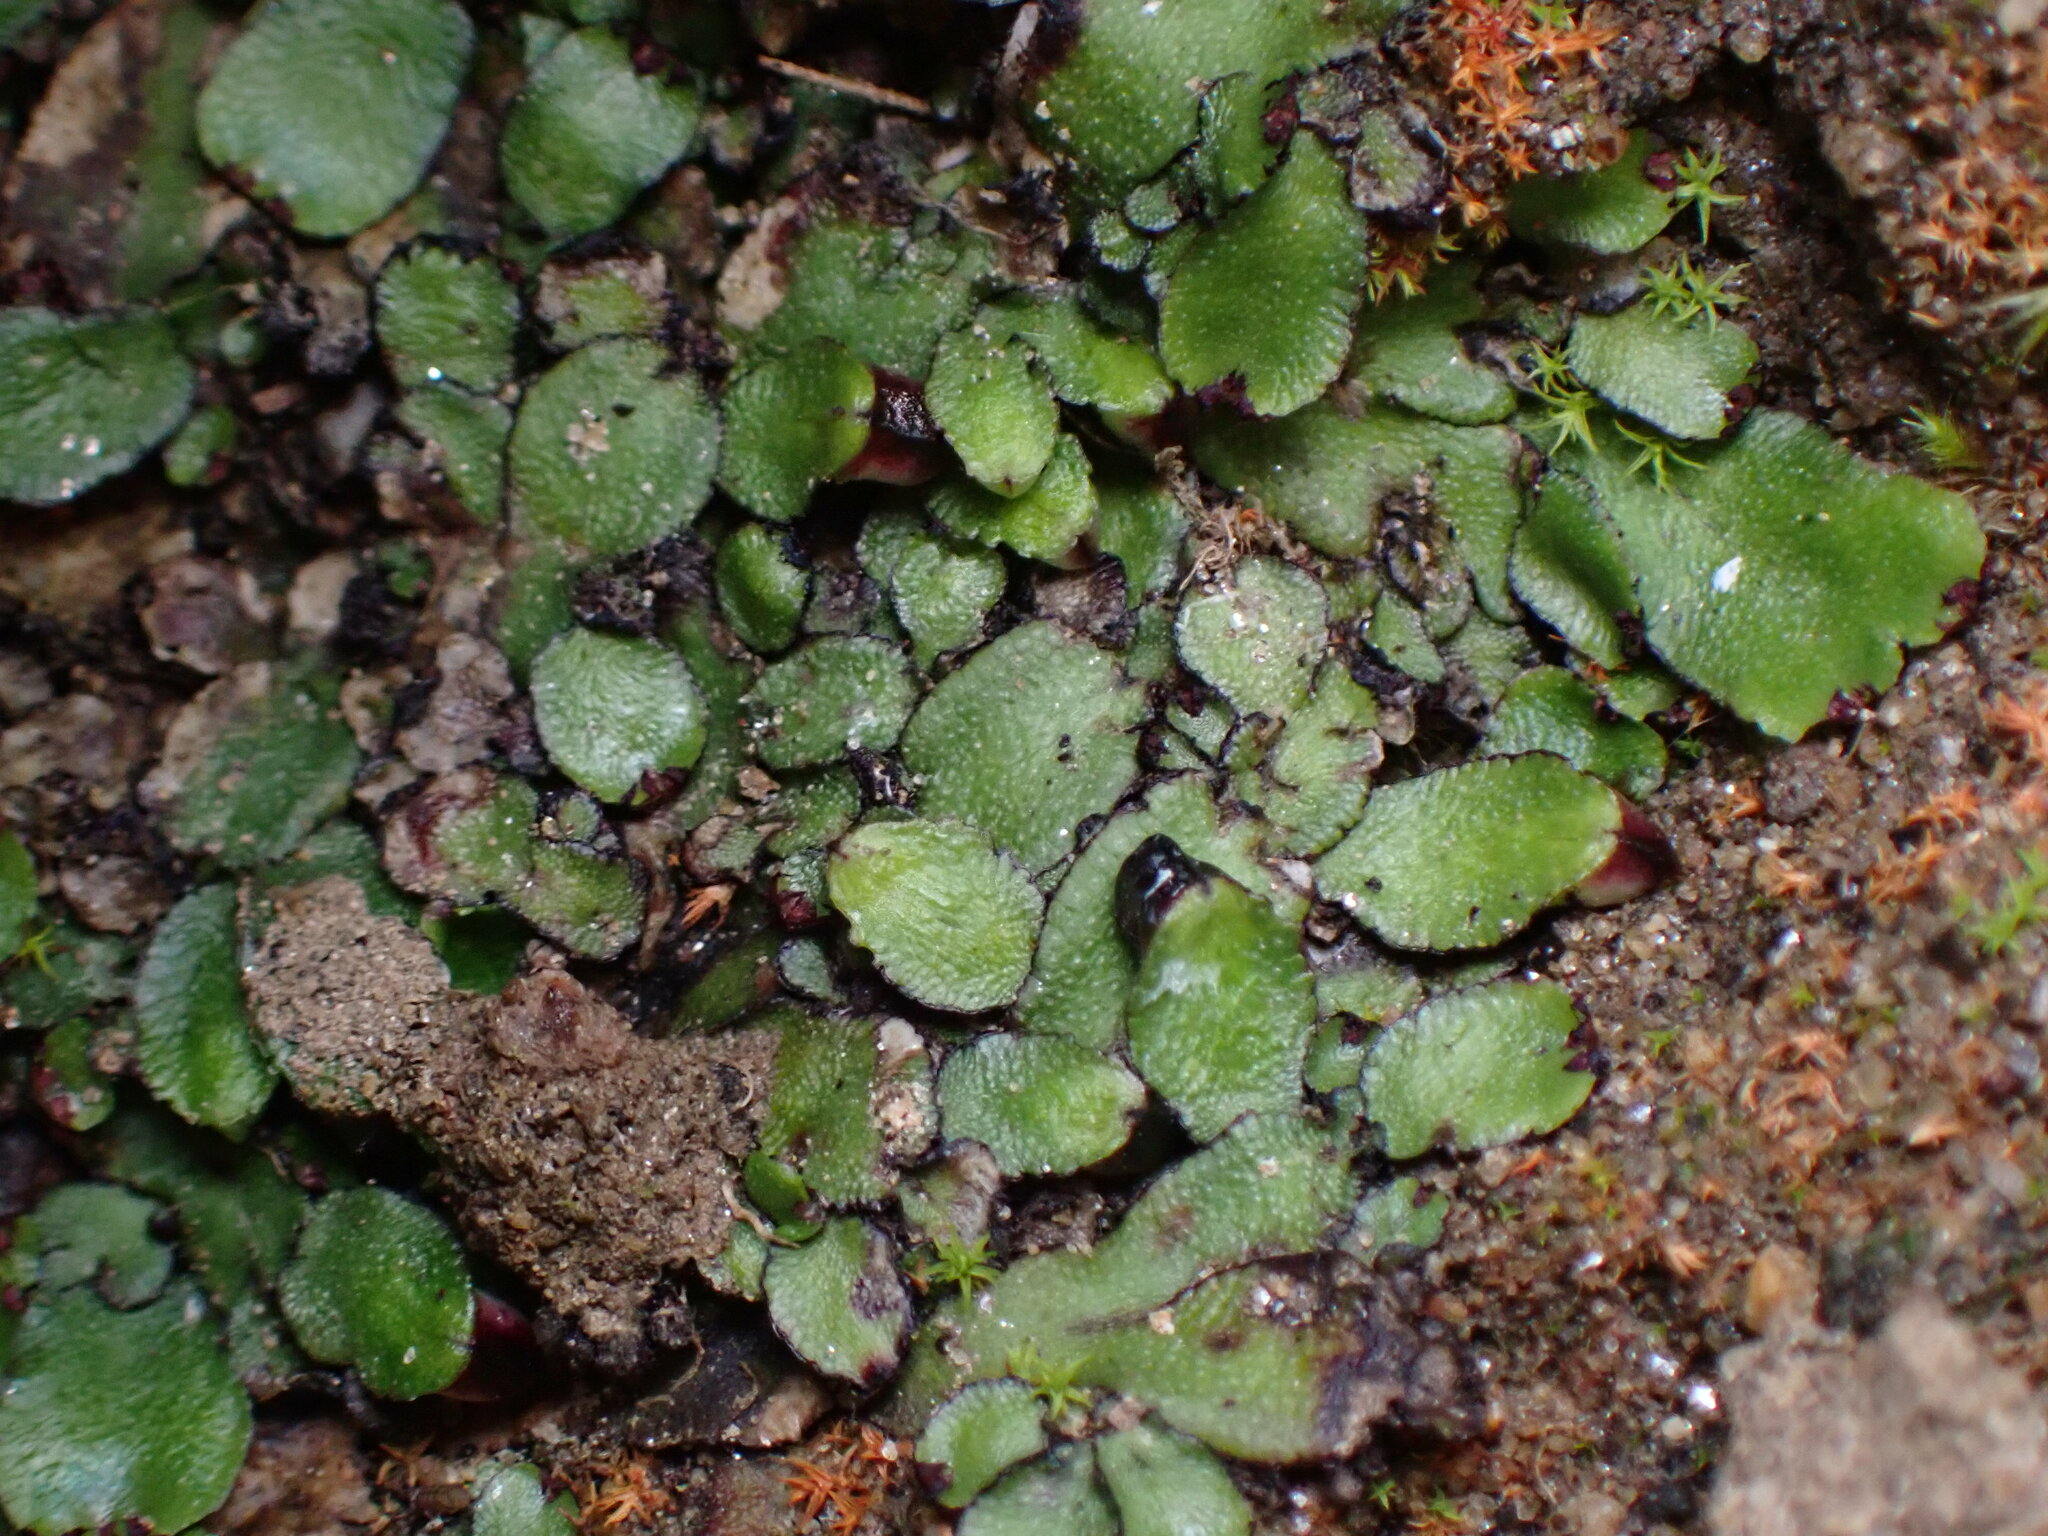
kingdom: Plantae
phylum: Marchantiophyta
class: Marchantiopsida
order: Marchantiales
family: Targioniaceae
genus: Targionia
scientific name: Targionia hypophylla
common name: Orobus-seed liverwort
